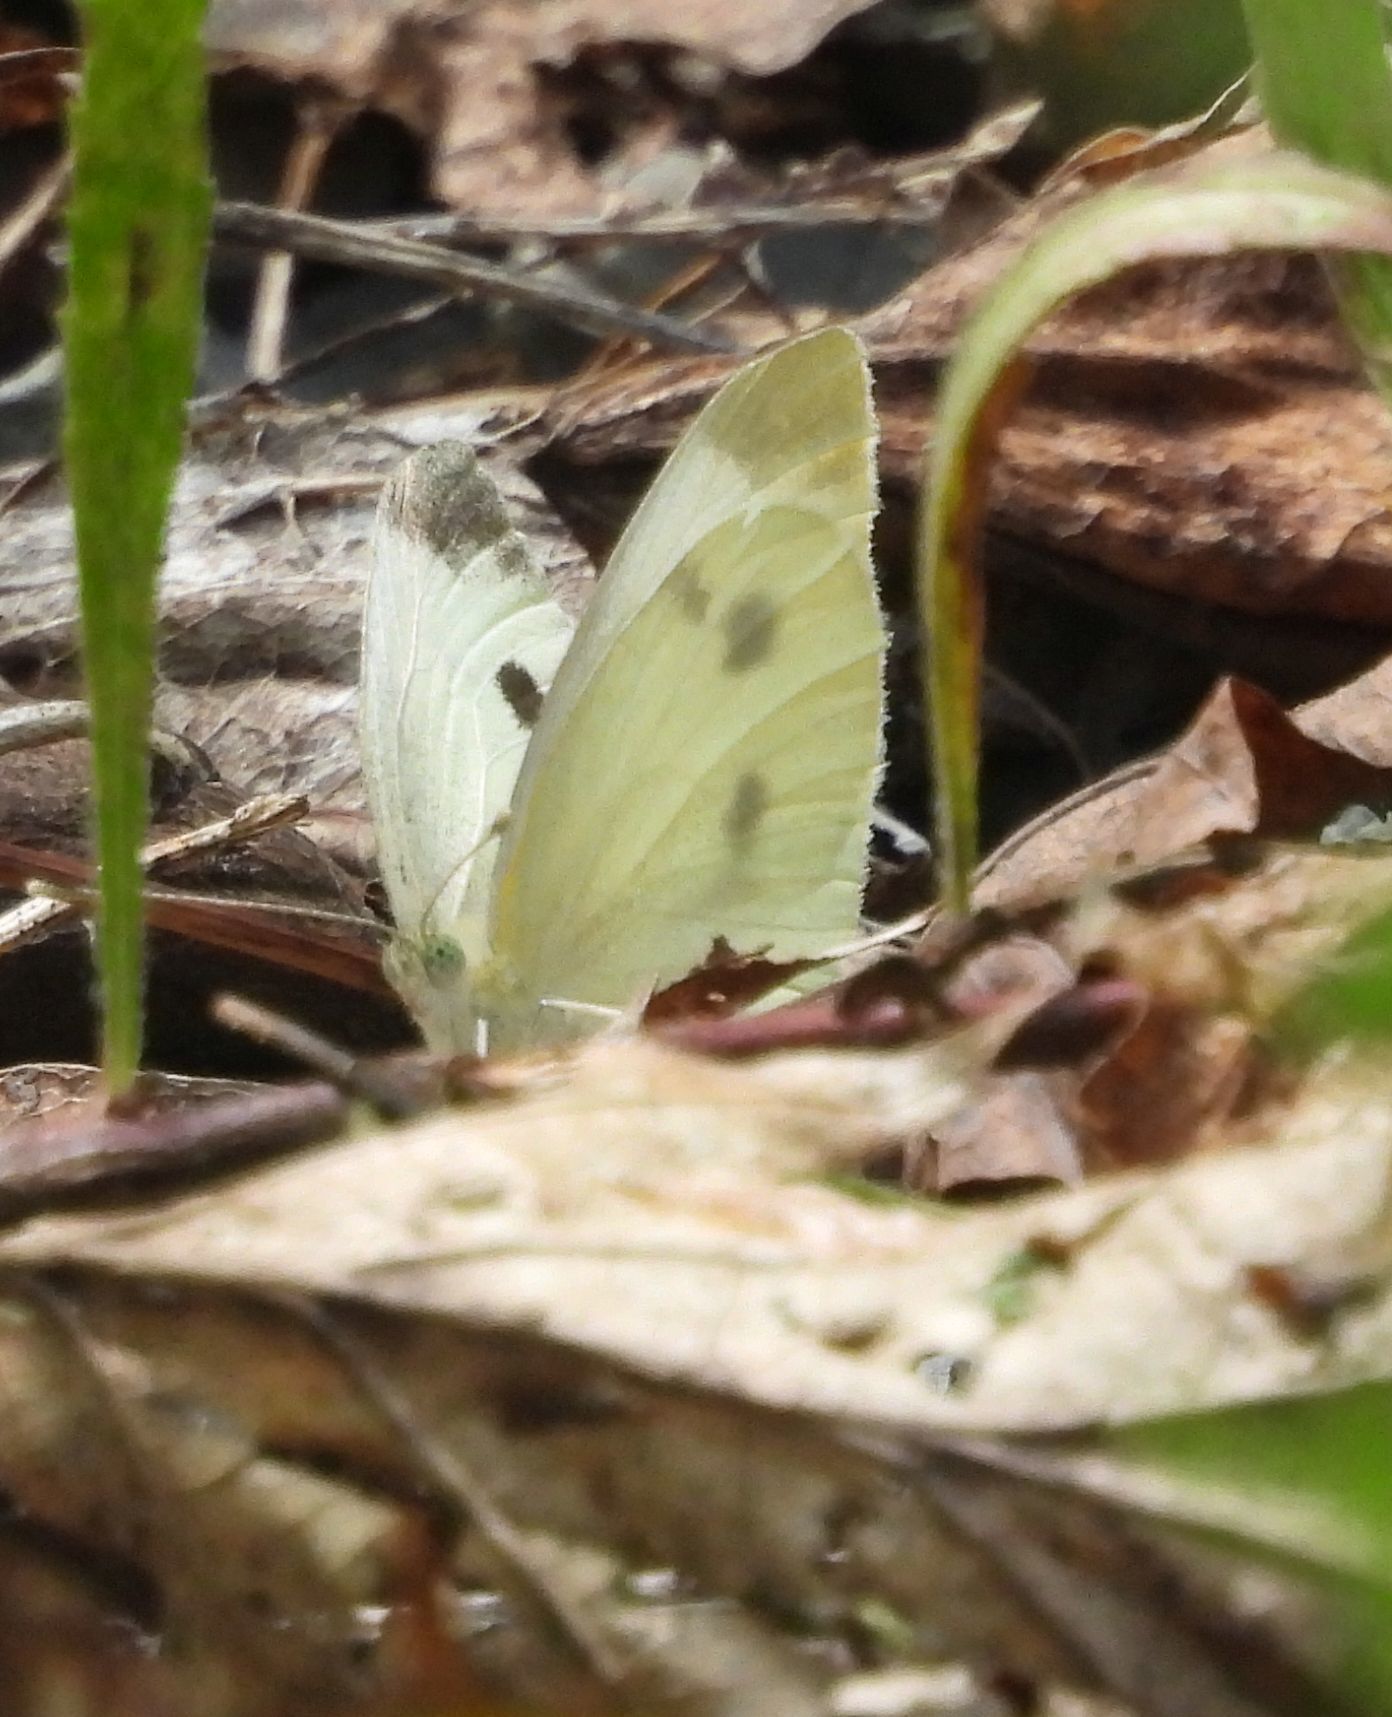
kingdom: Animalia
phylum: Arthropoda
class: Insecta
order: Lepidoptera
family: Pieridae
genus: Pieris
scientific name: Pieris rapae
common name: Small white
